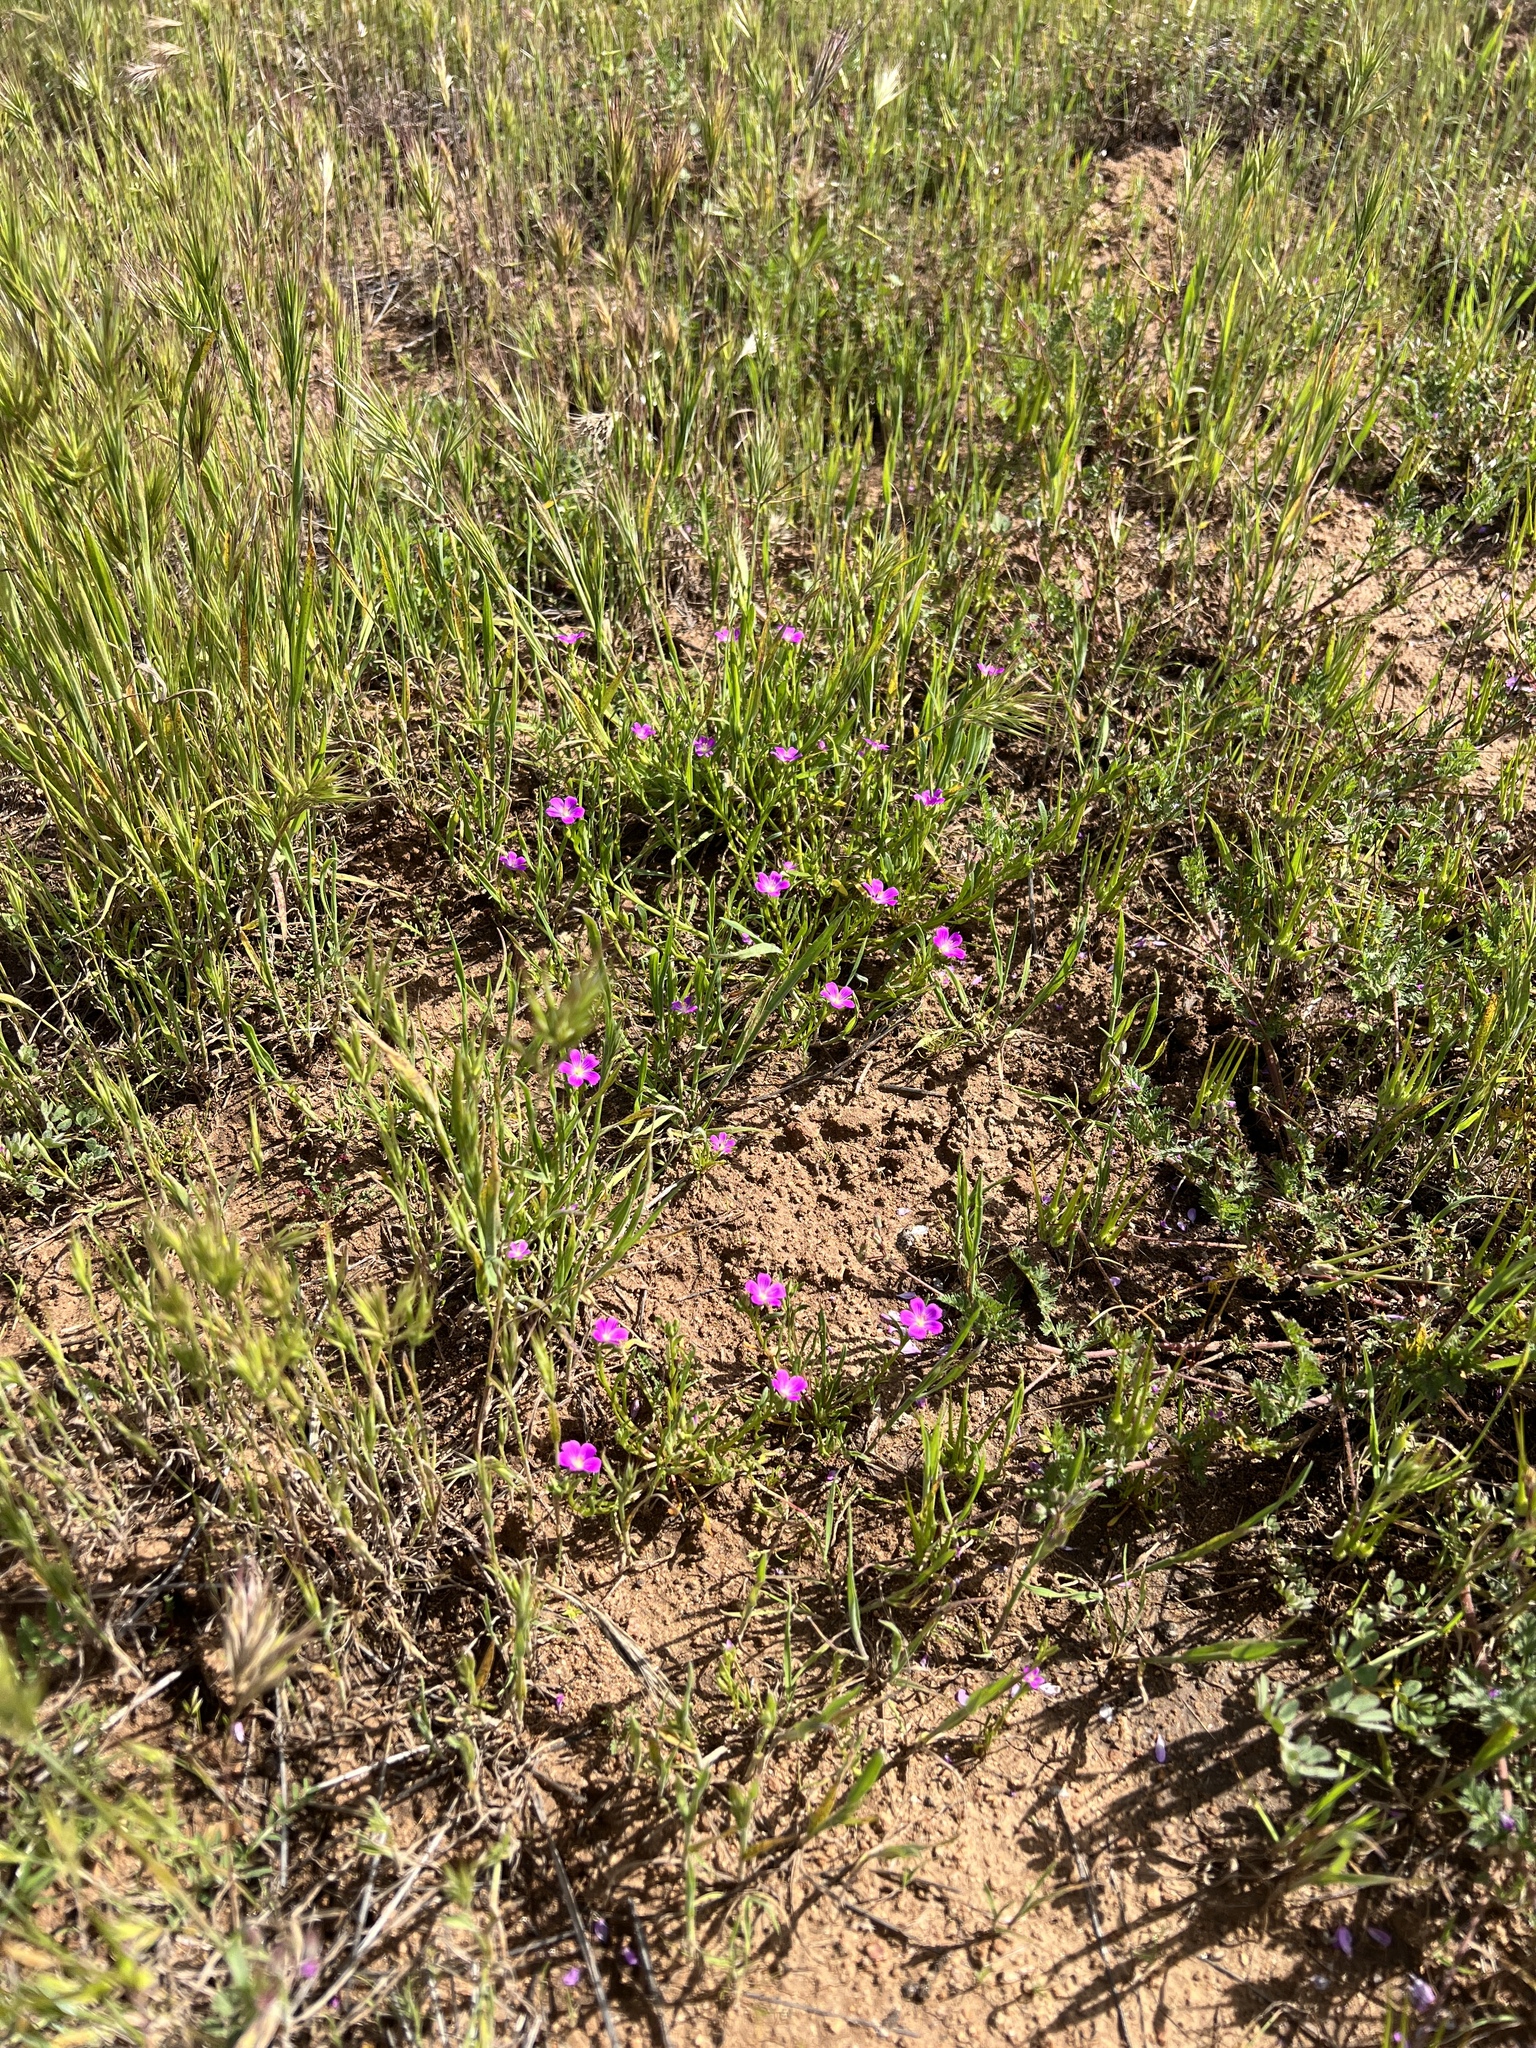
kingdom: Plantae
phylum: Tracheophyta
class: Magnoliopsida
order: Caryophyllales
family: Montiaceae
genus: Calandrinia
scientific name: Calandrinia menziesii
